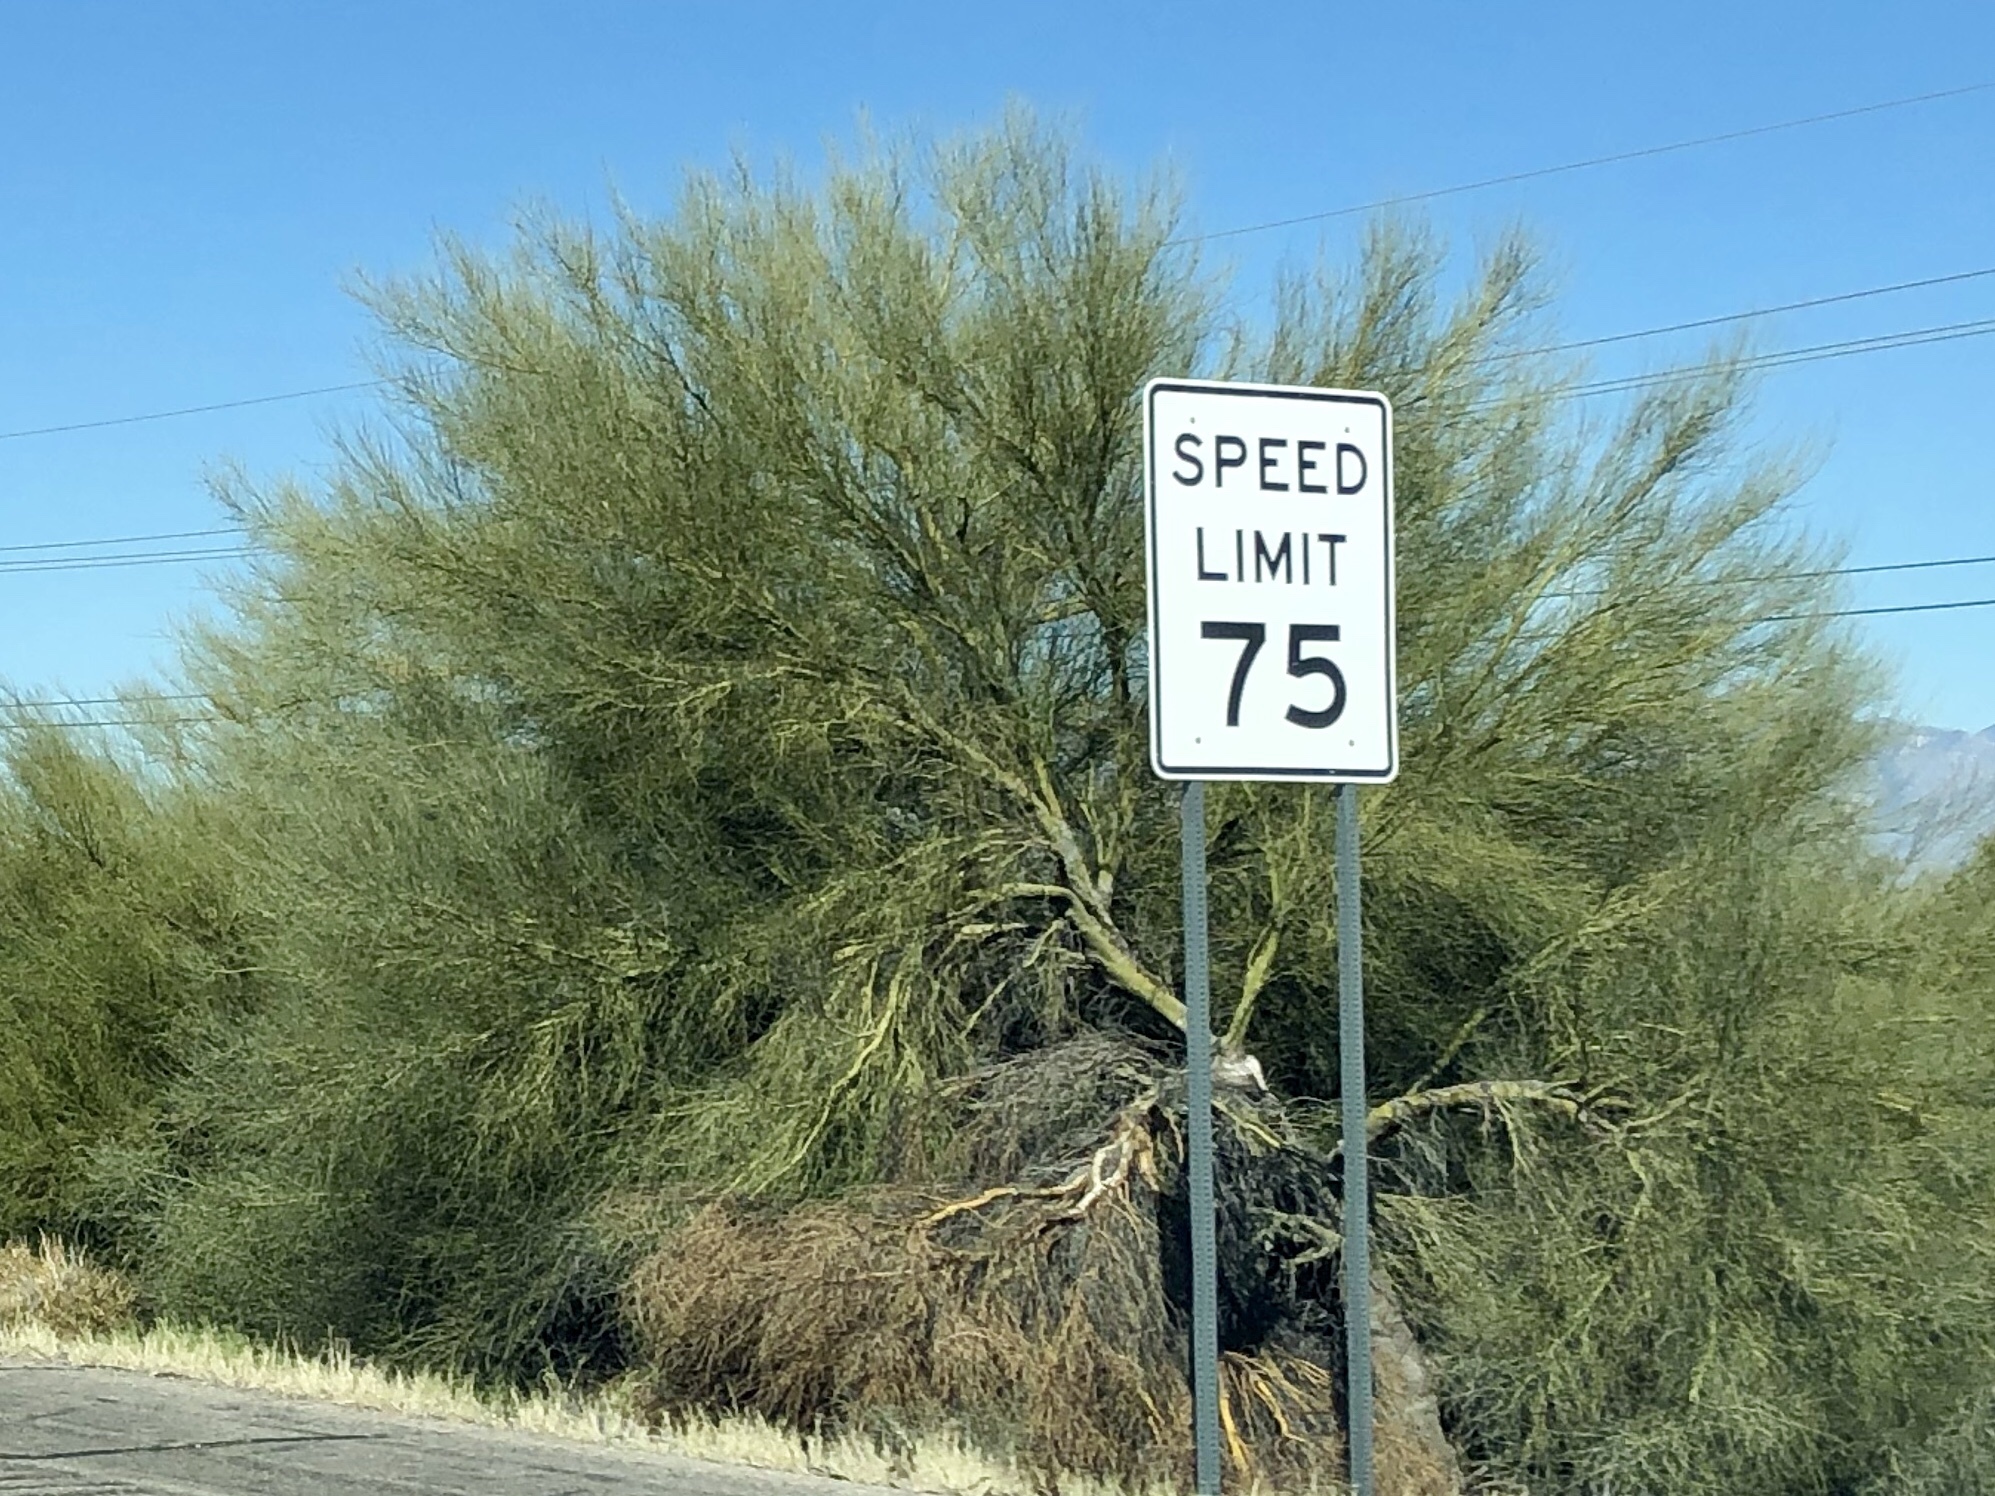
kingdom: Plantae
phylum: Tracheophyta
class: Magnoliopsida
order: Fabales
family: Fabaceae
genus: Parkinsonia
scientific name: Parkinsonia microphylla
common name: Yellow paloverde
